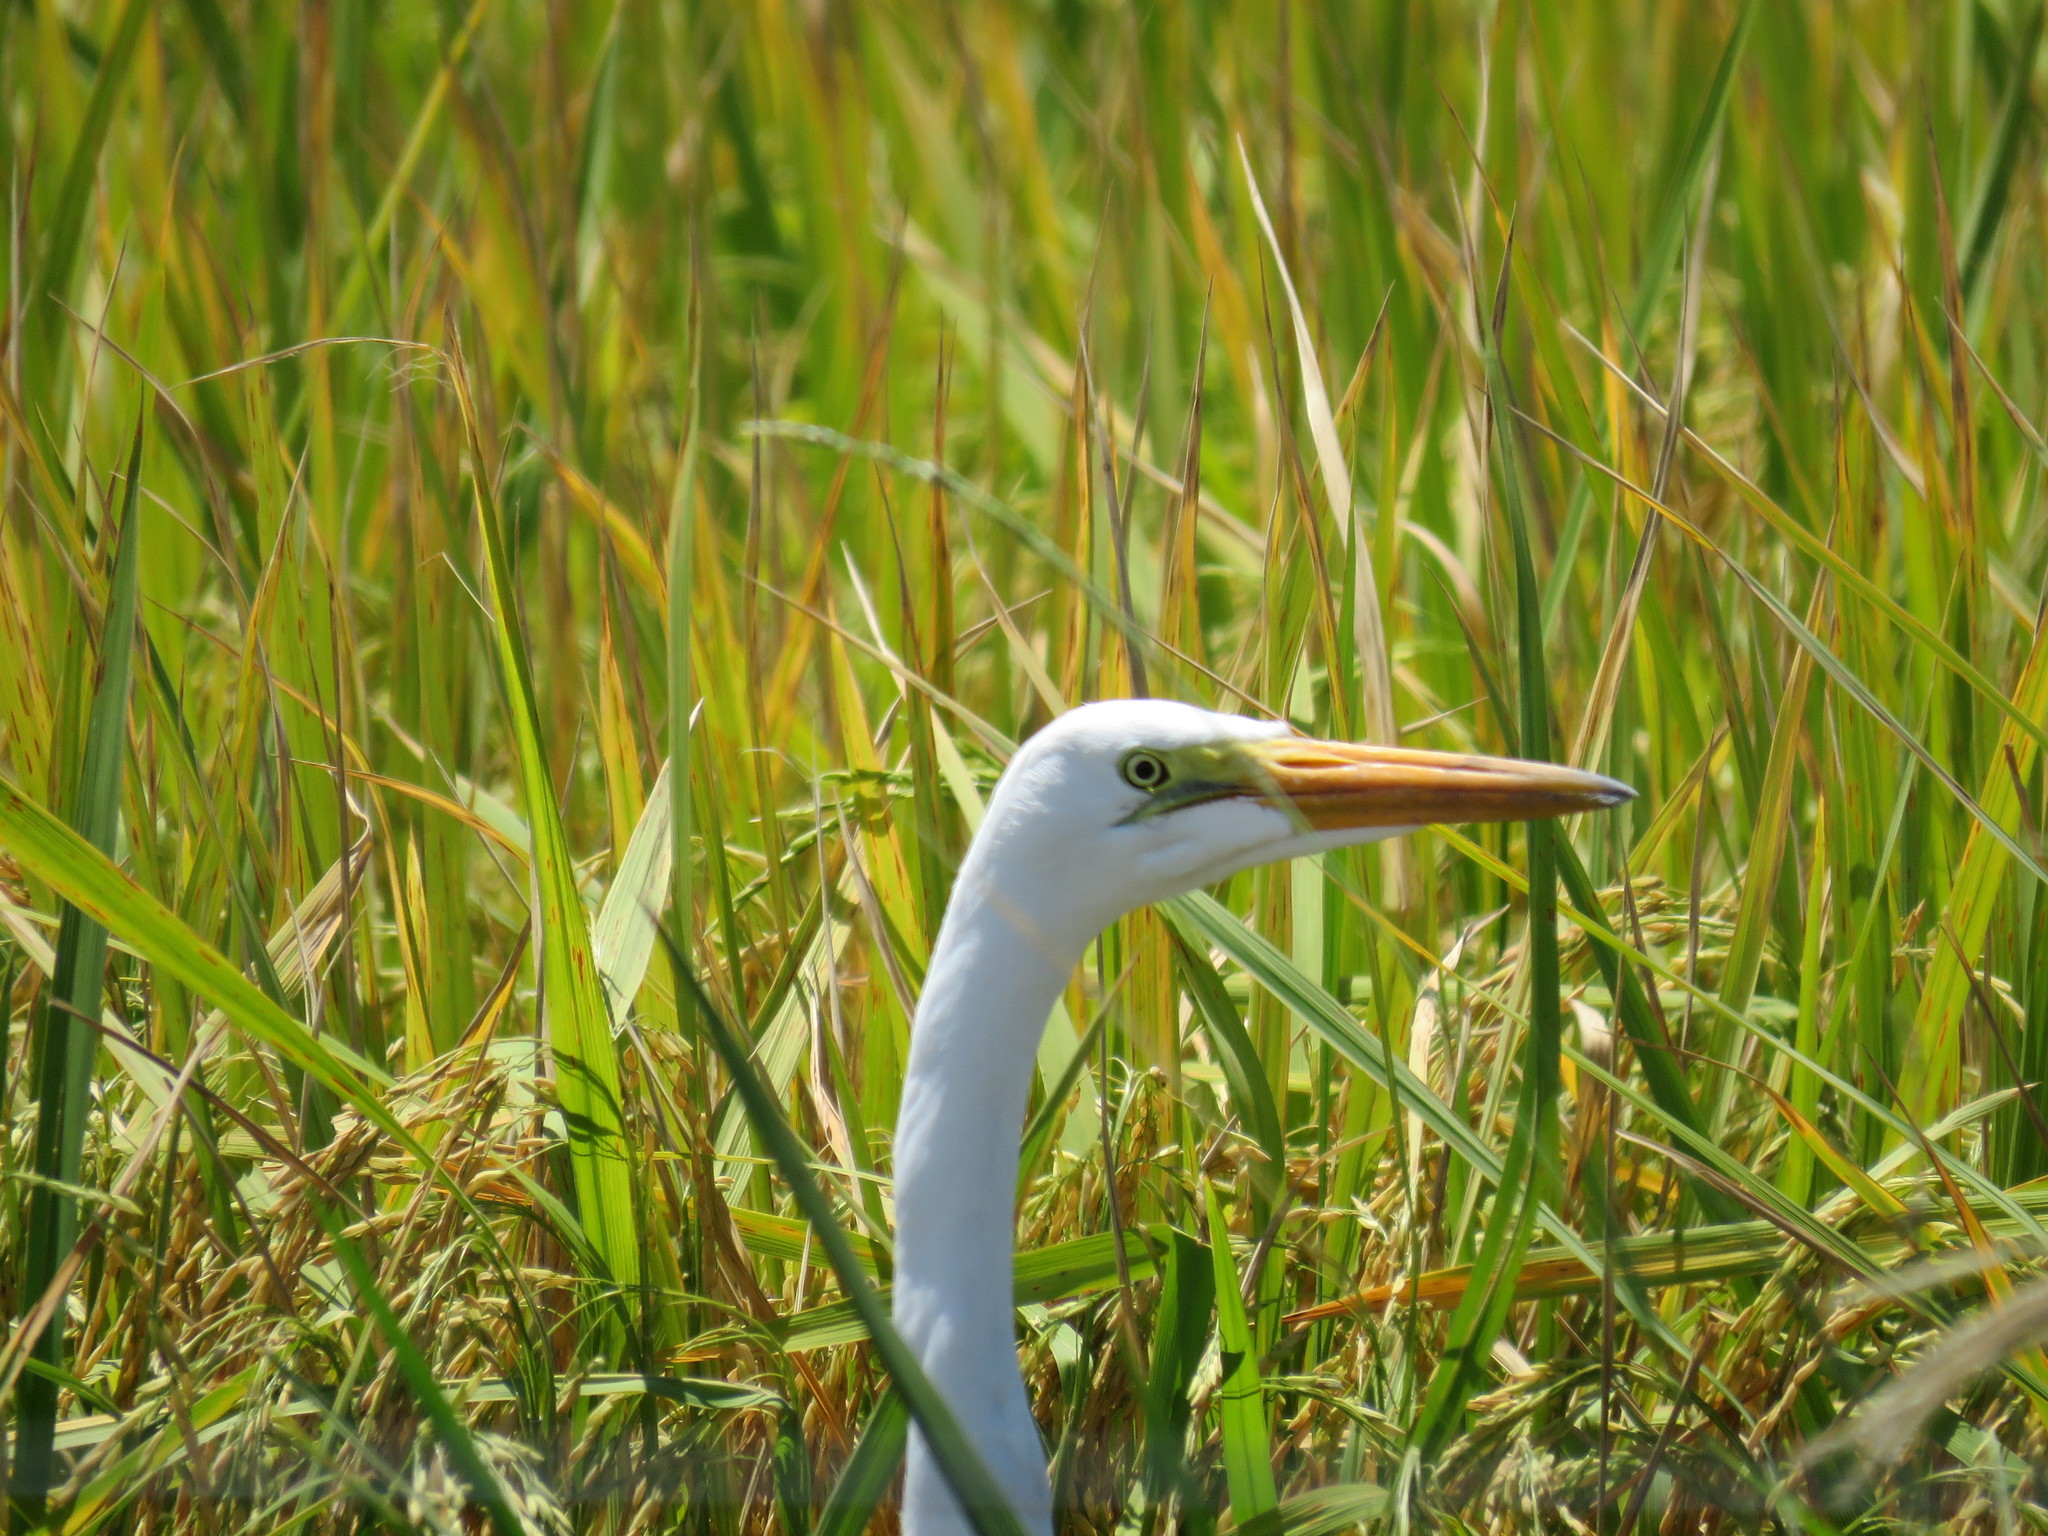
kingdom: Animalia
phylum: Chordata
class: Aves
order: Pelecaniformes
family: Ardeidae
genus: Ardea
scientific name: Ardea alba
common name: Great egret
